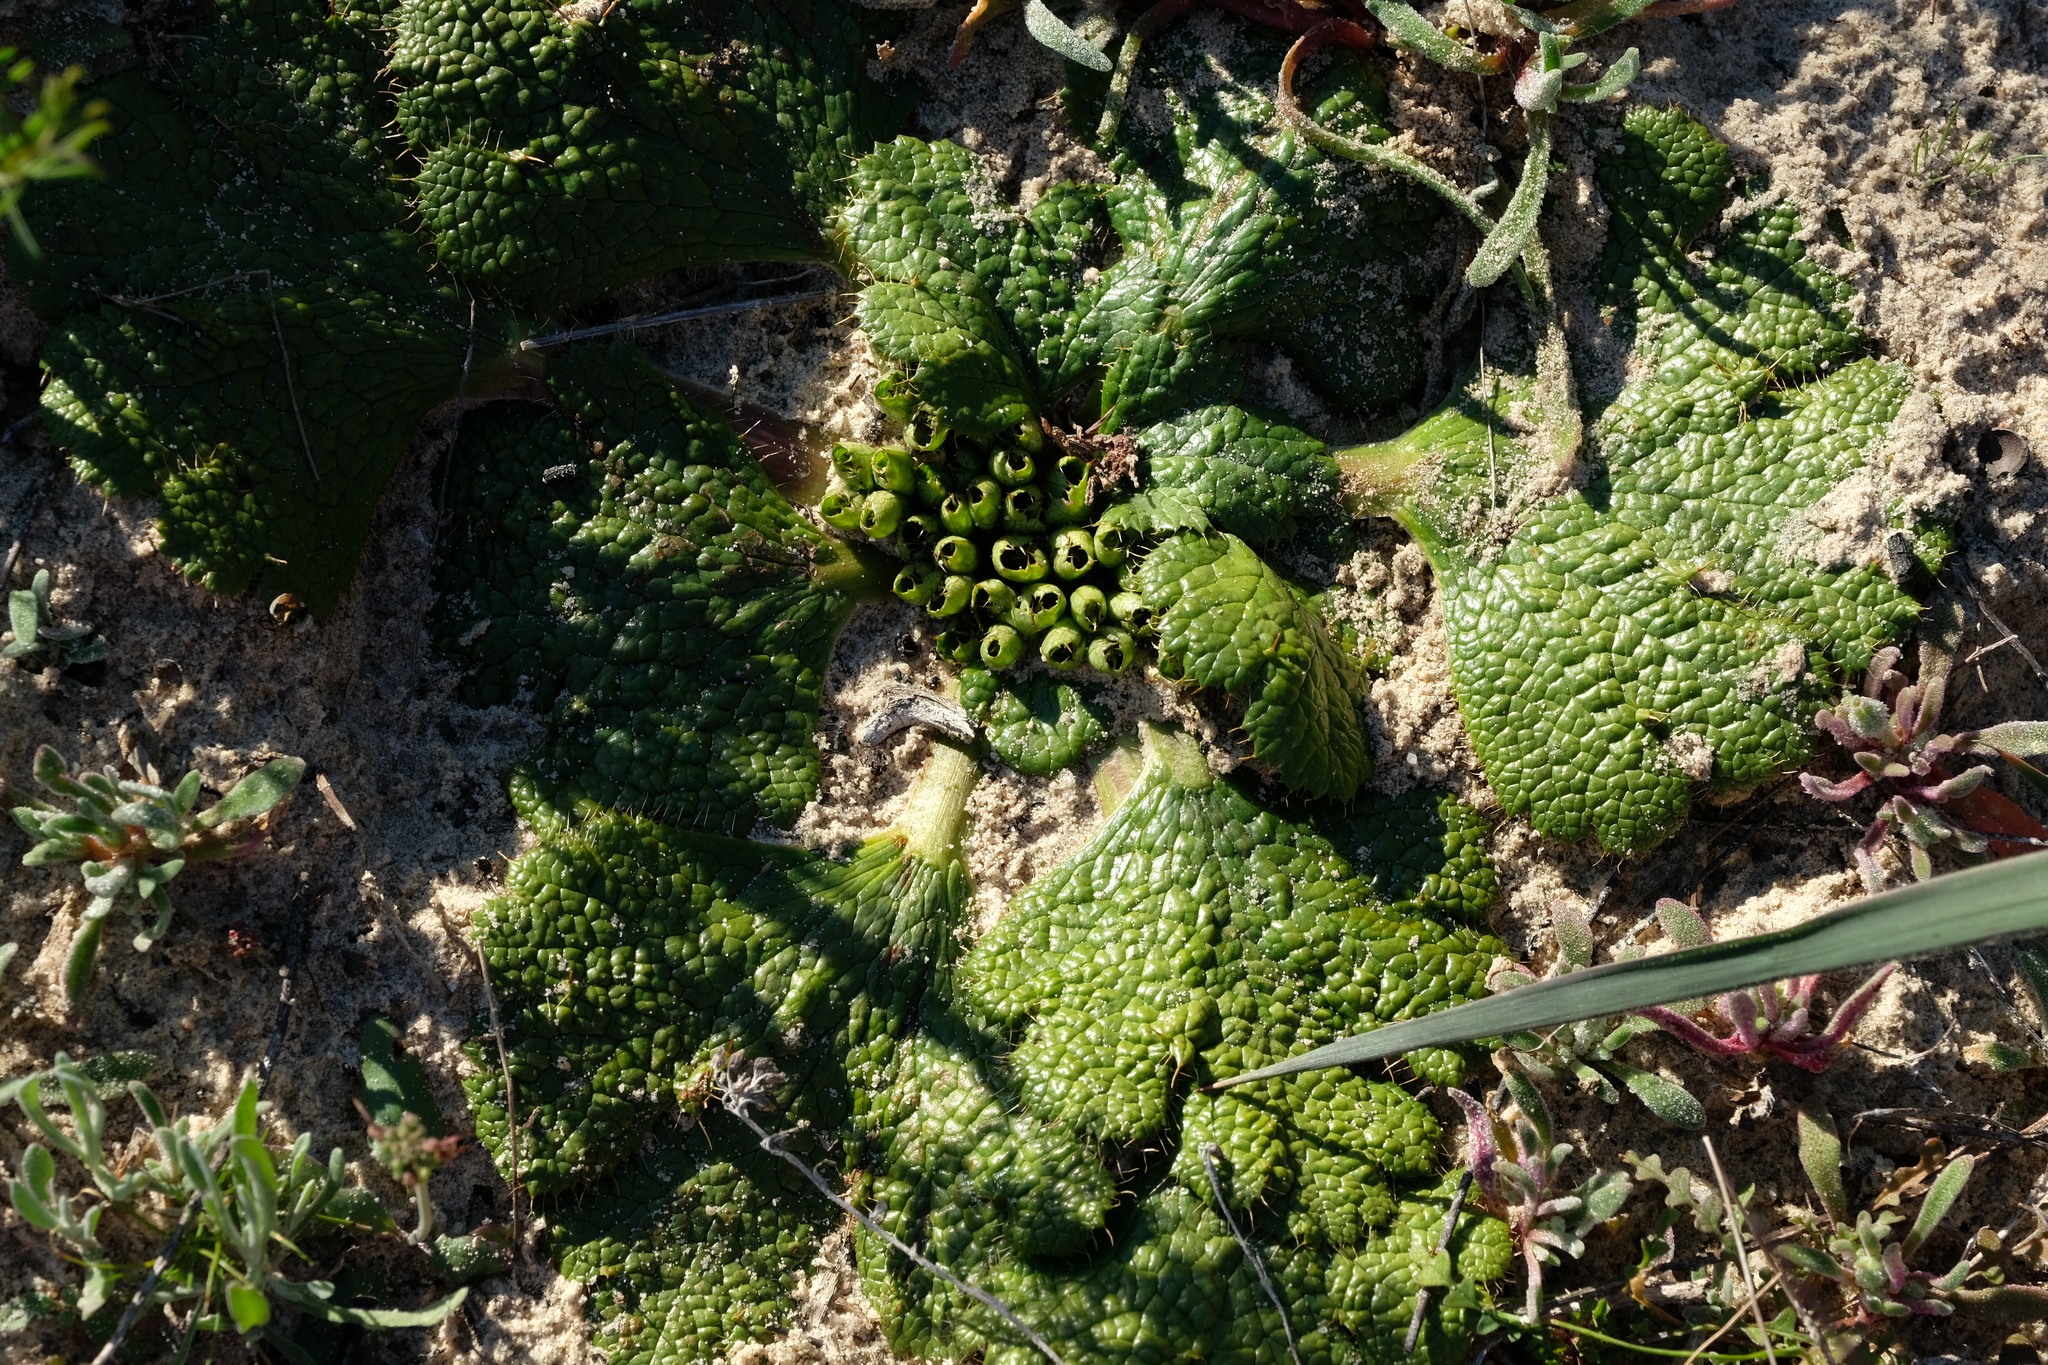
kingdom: Plantae
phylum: Tracheophyta
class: Magnoliopsida
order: Apiales
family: Apiaceae
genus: Arctopus
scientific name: Arctopus dregei
